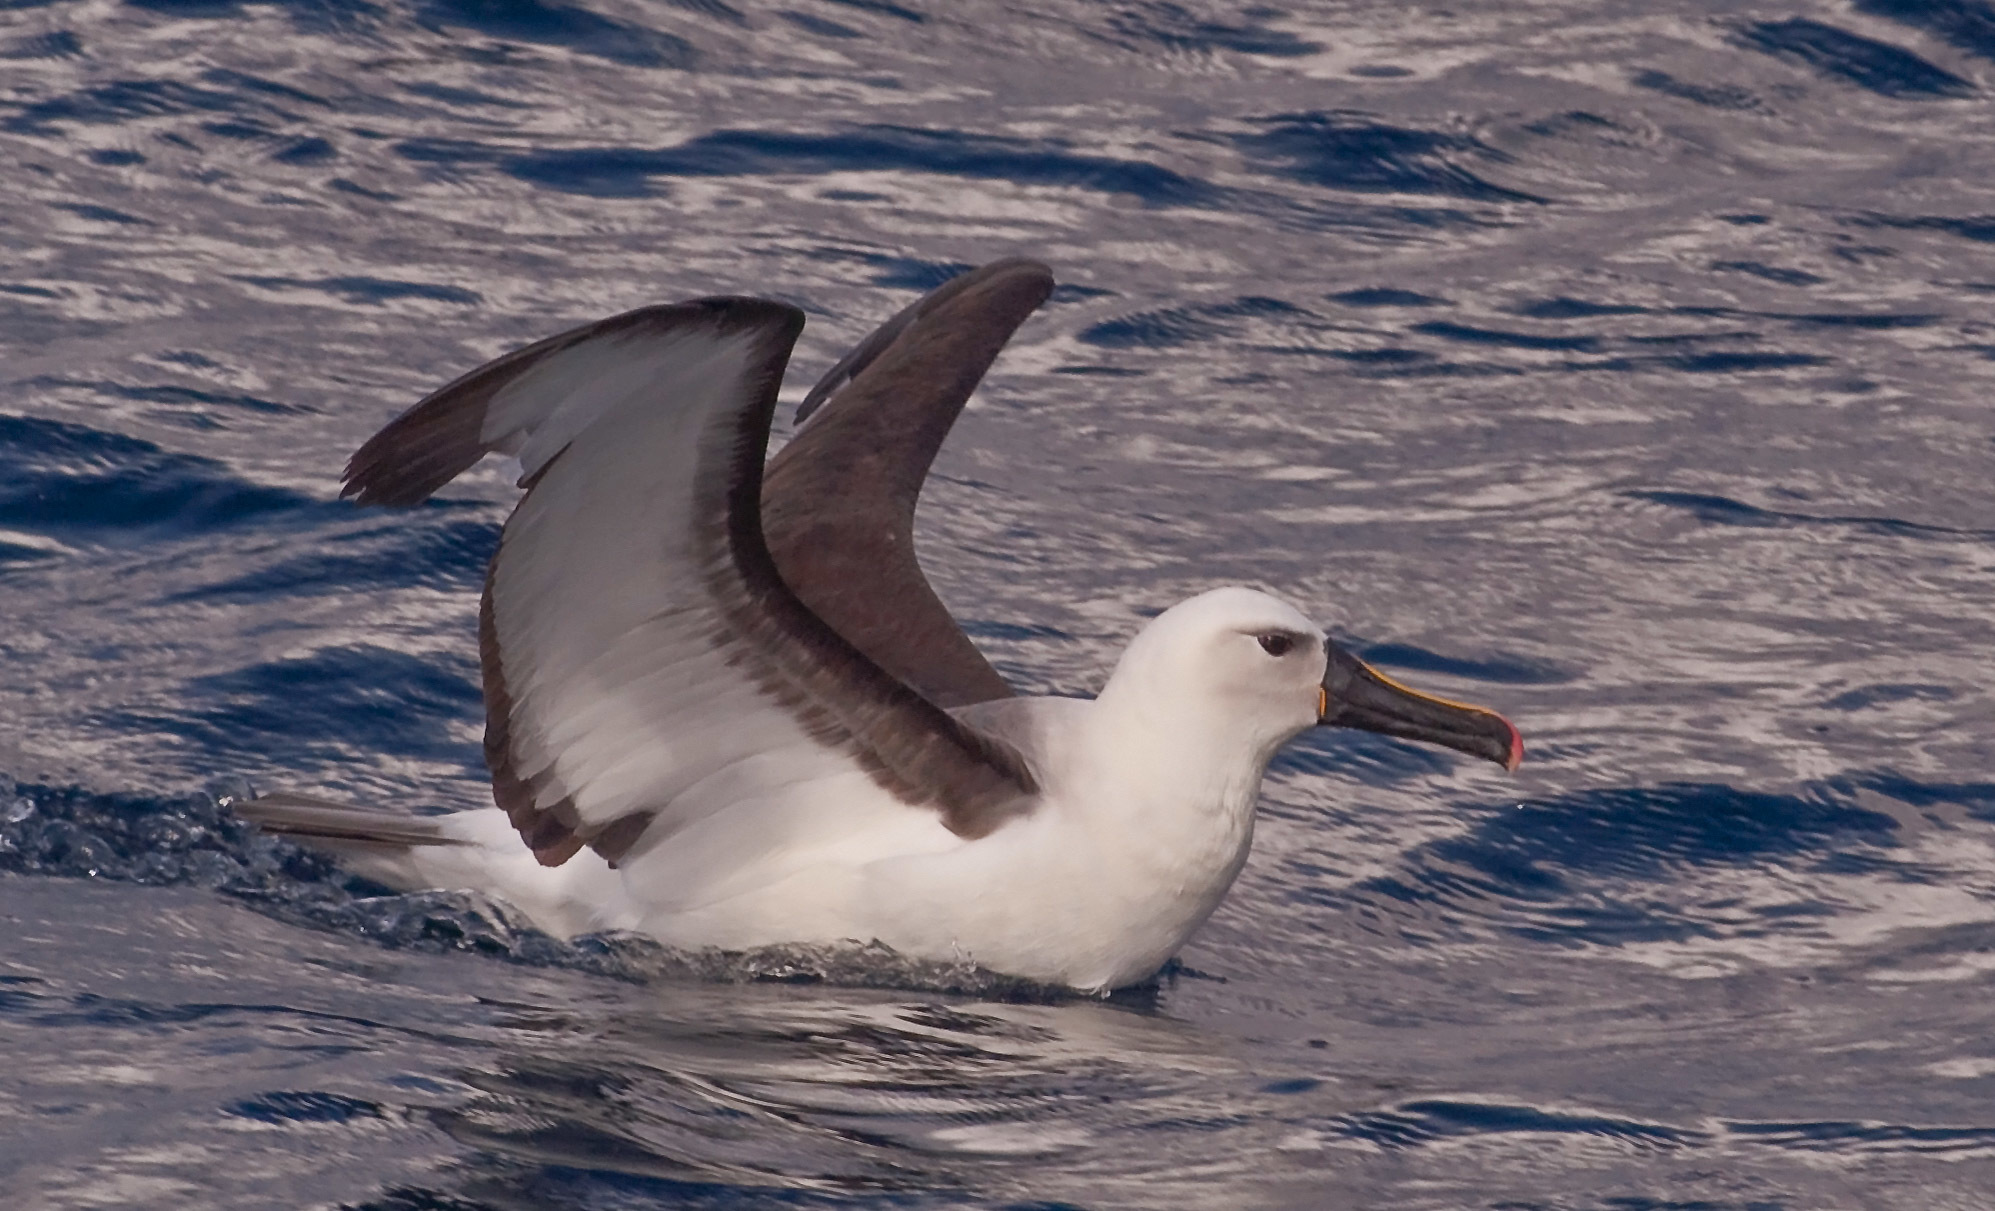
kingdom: Animalia
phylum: Chordata
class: Aves
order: Procellariiformes
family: Diomedeidae
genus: Thalassarche
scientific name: Thalassarche carteri
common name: Indian yellow-nosed albatross
